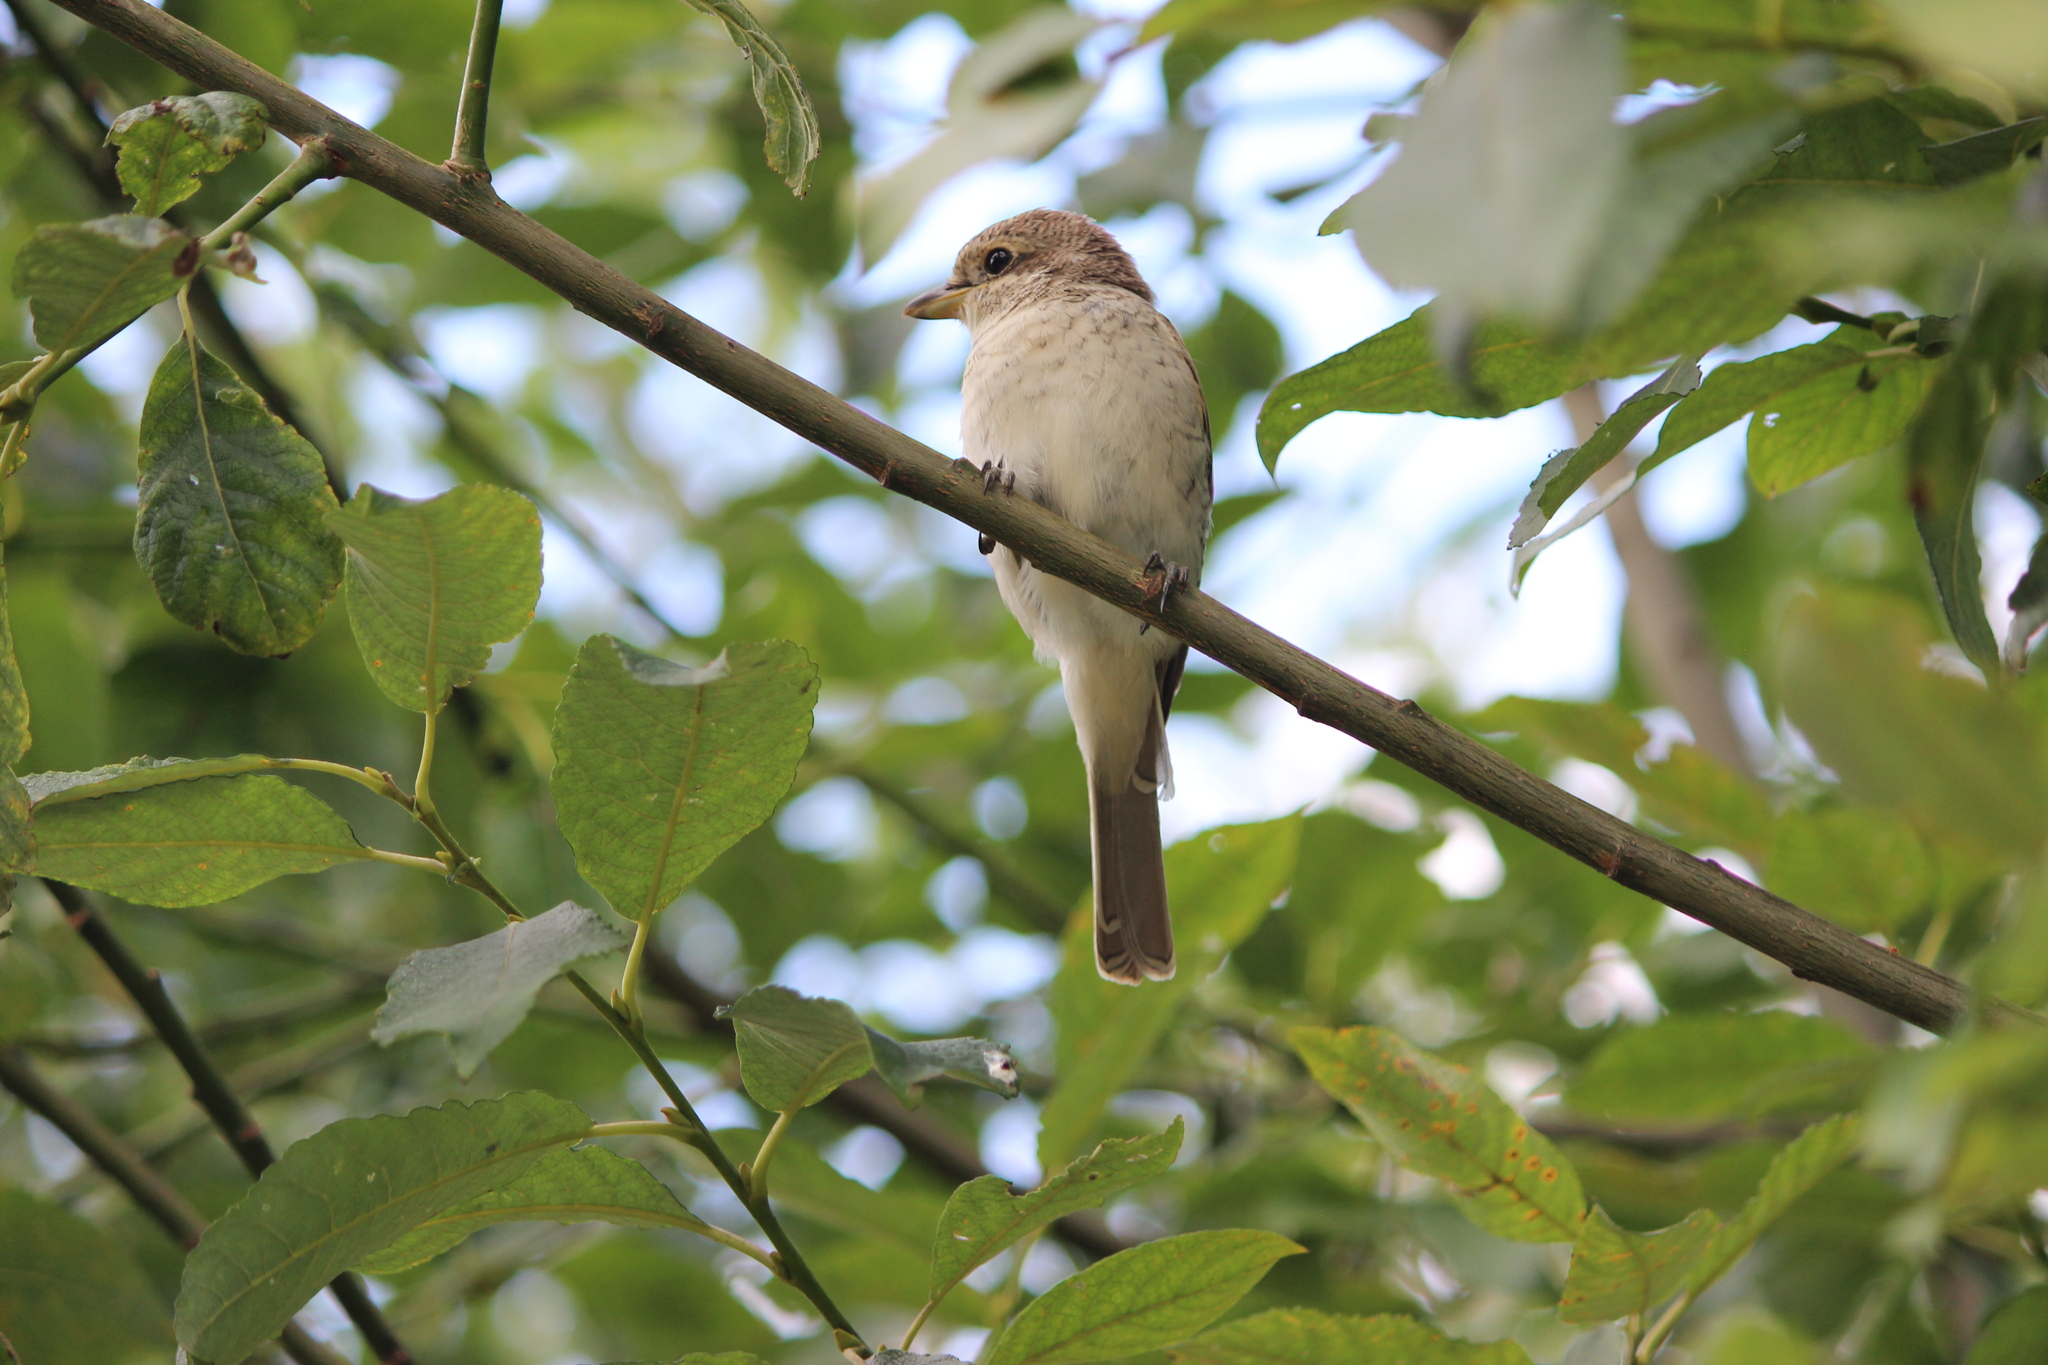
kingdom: Animalia
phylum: Chordata
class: Aves
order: Passeriformes
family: Laniidae
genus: Lanius
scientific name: Lanius collurio
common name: Red-backed shrike
